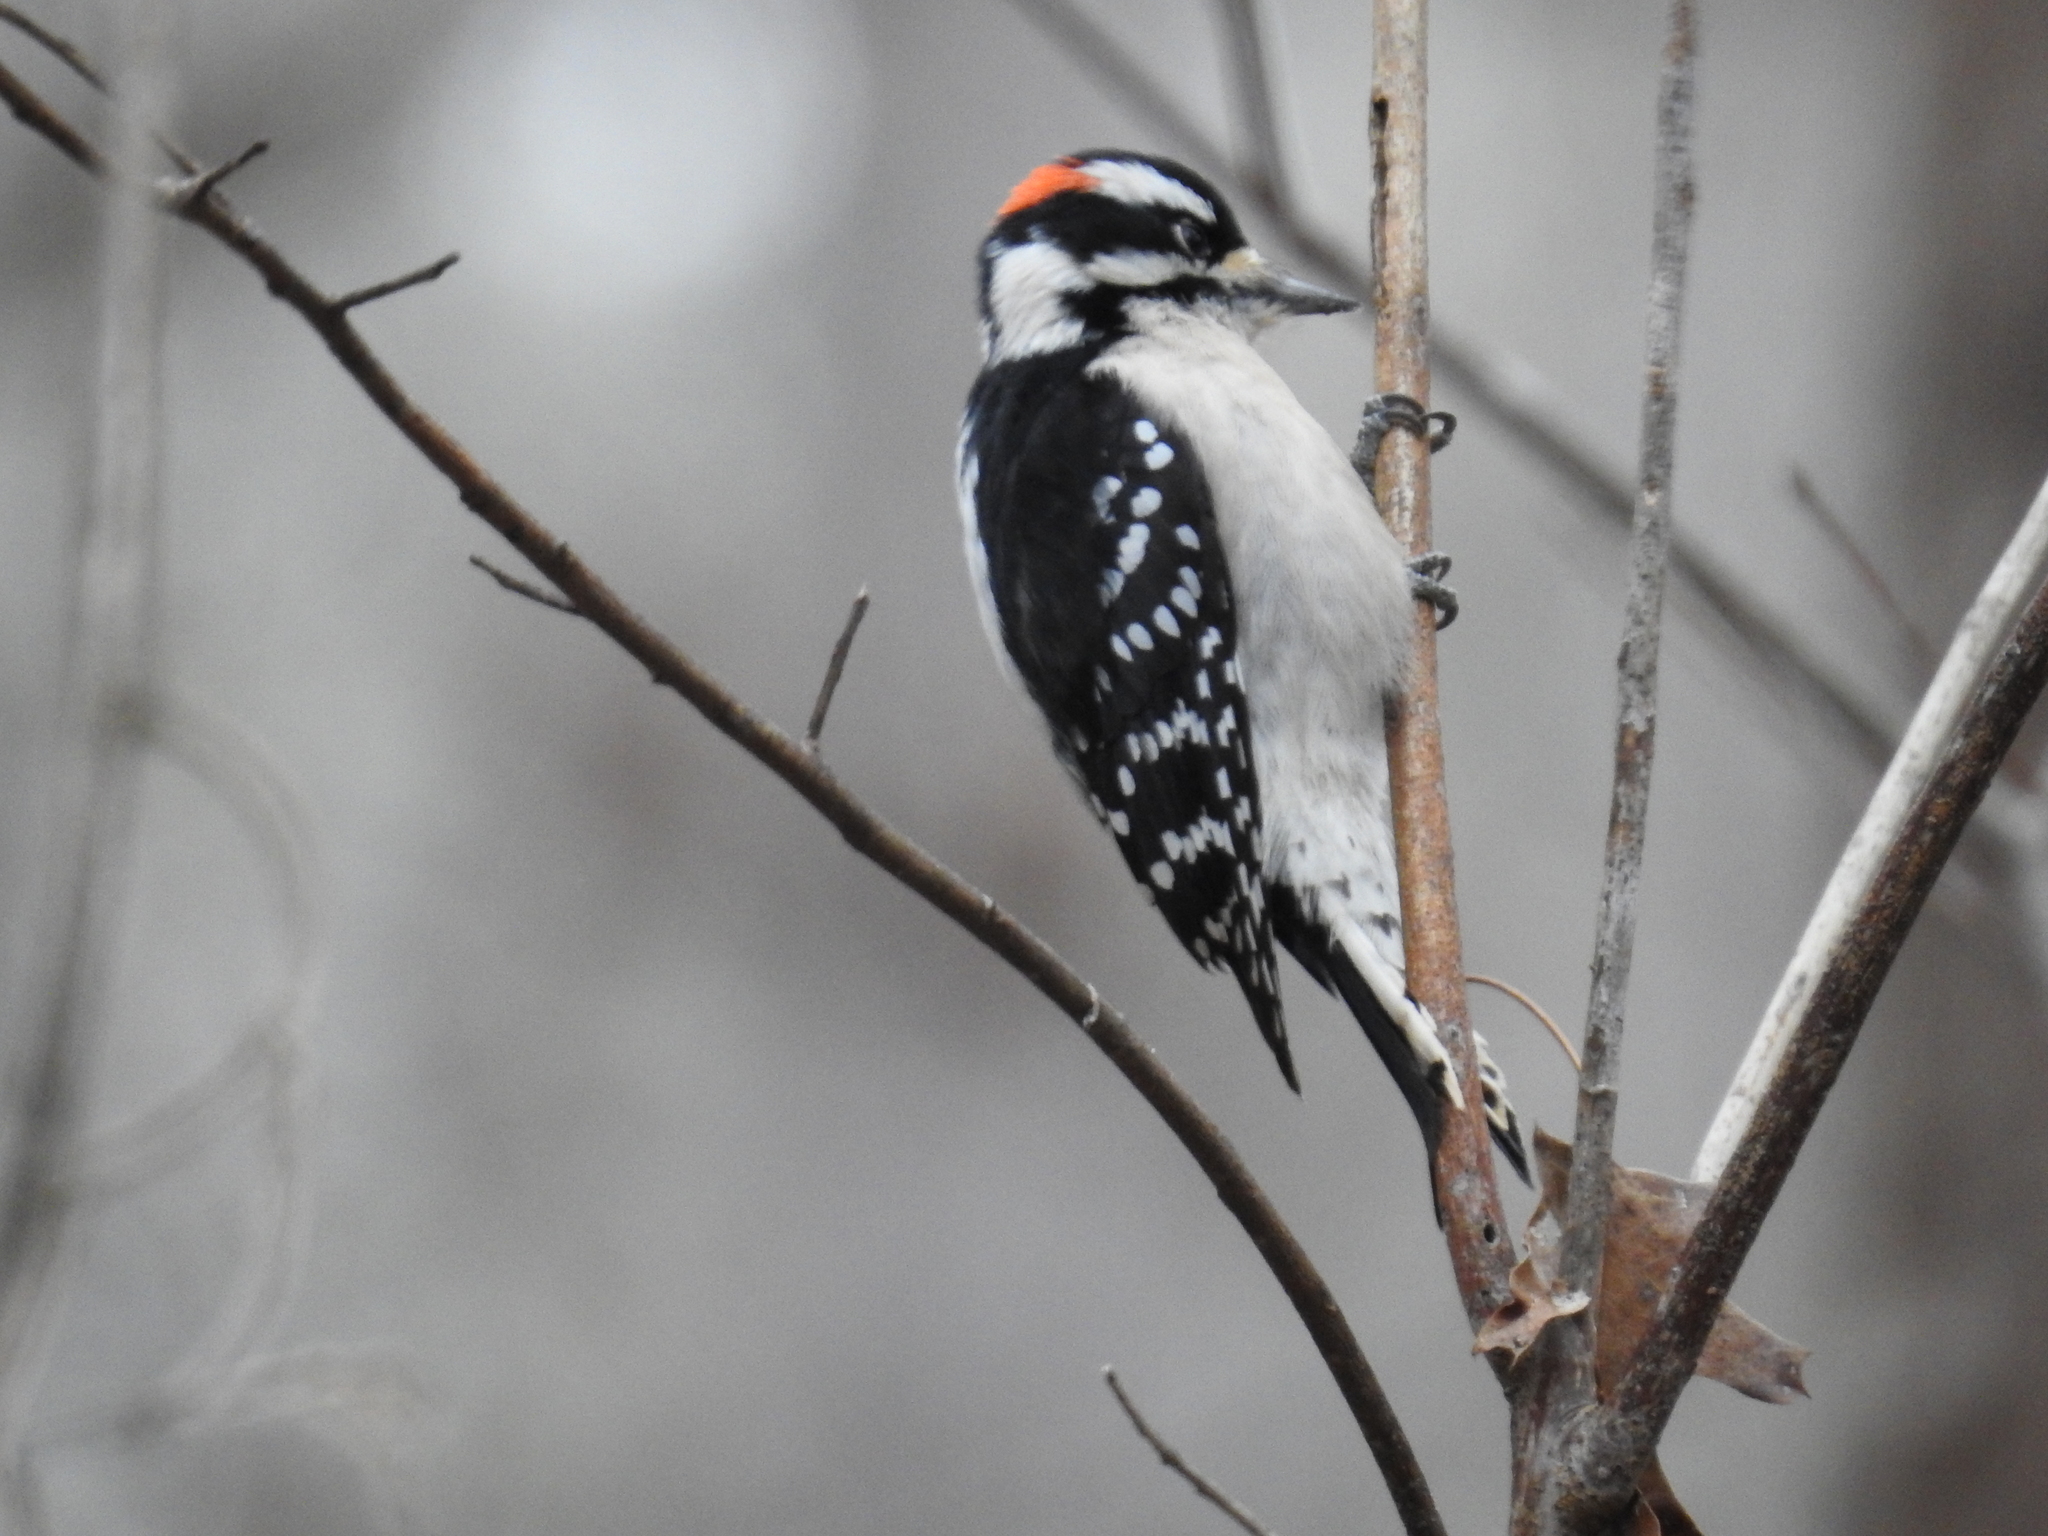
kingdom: Animalia
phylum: Chordata
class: Aves
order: Piciformes
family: Picidae
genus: Dryobates
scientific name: Dryobates pubescens
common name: Downy woodpecker
